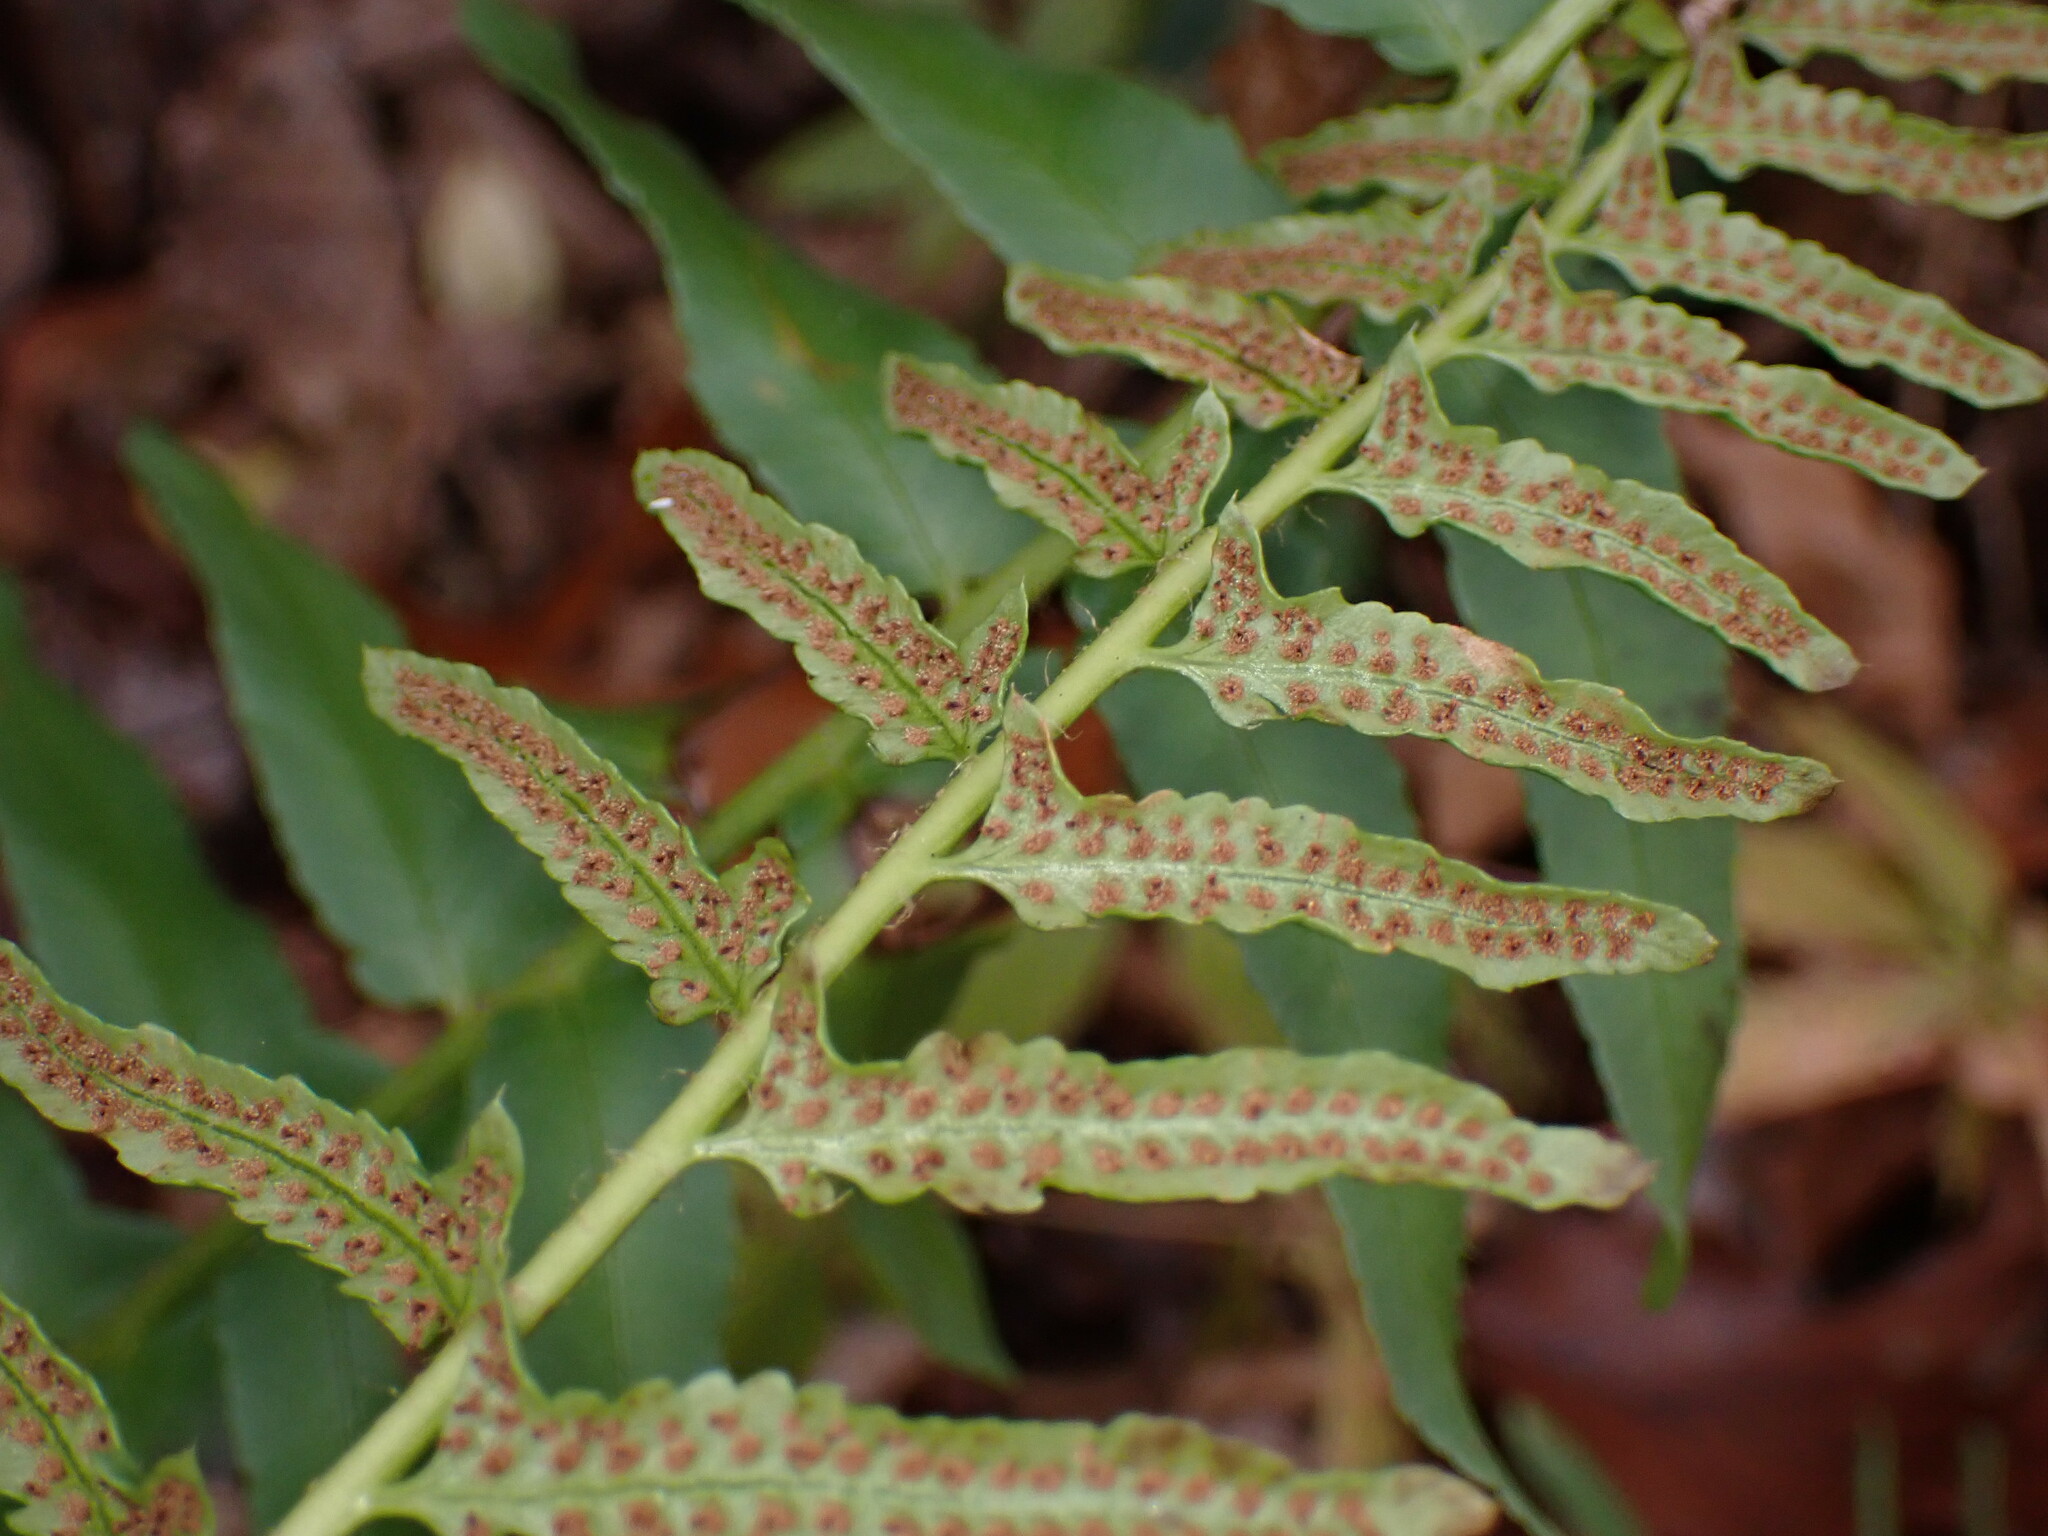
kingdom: Plantae
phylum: Tracheophyta
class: Polypodiopsida
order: Polypodiales
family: Dryopteridaceae
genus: Polystichum
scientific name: Polystichum acrostichoides
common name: Christmas fern
